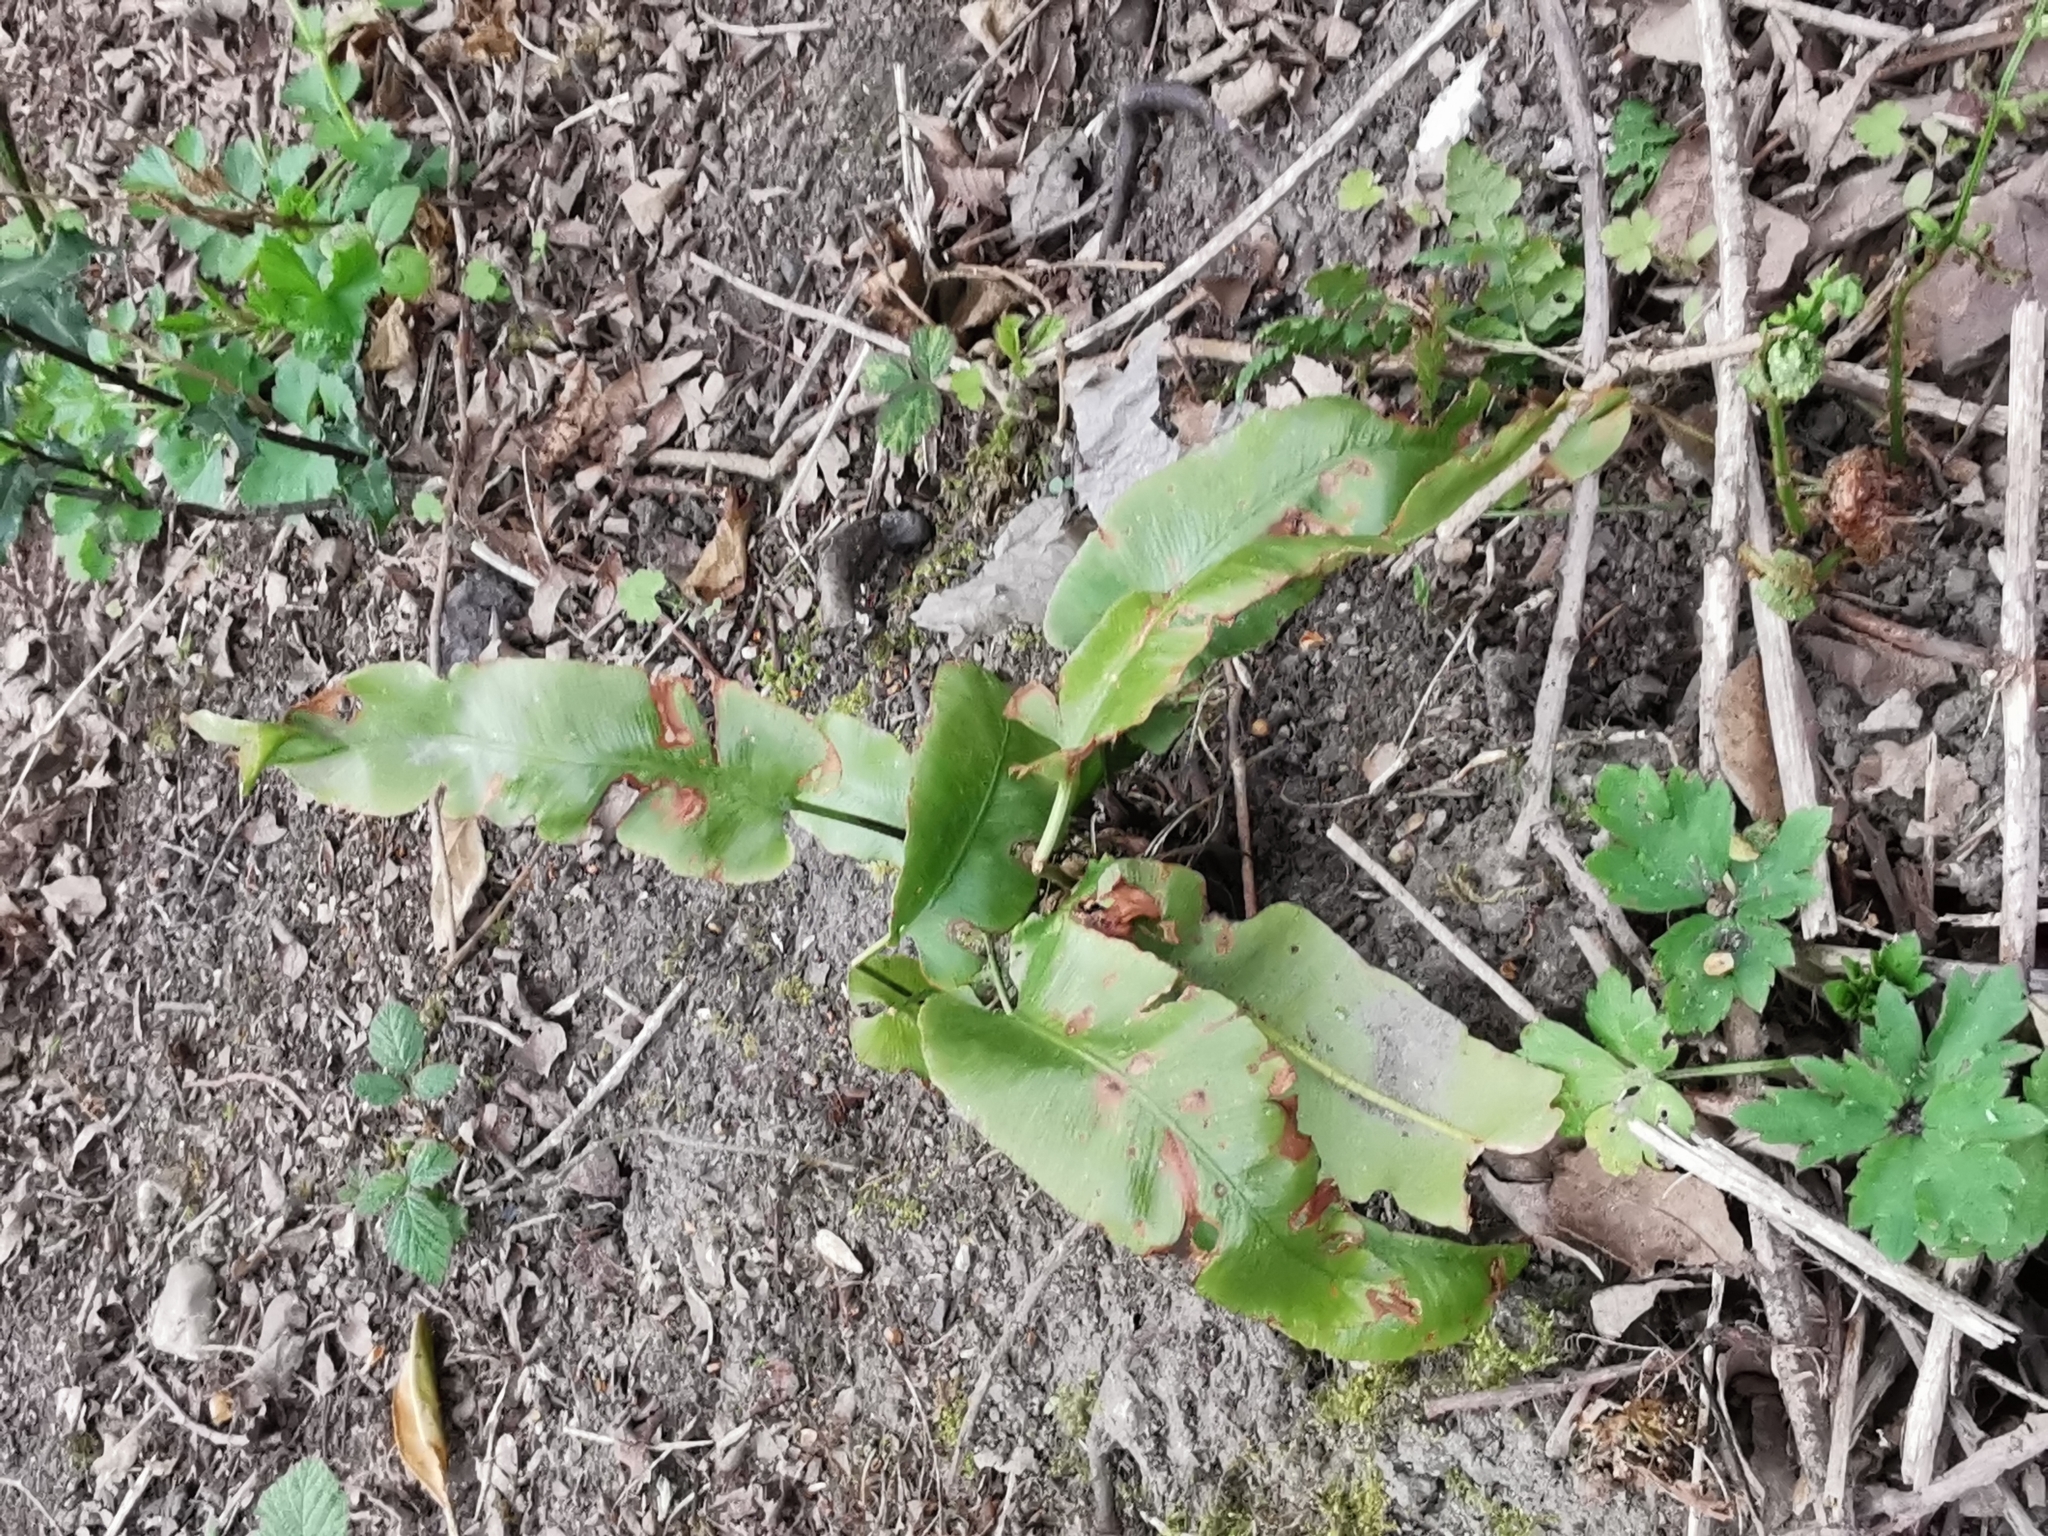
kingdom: Plantae
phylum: Tracheophyta
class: Polypodiopsida
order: Polypodiales
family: Aspleniaceae
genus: Asplenium
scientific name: Asplenium scolopendrium
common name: Hart's-tongue fern
